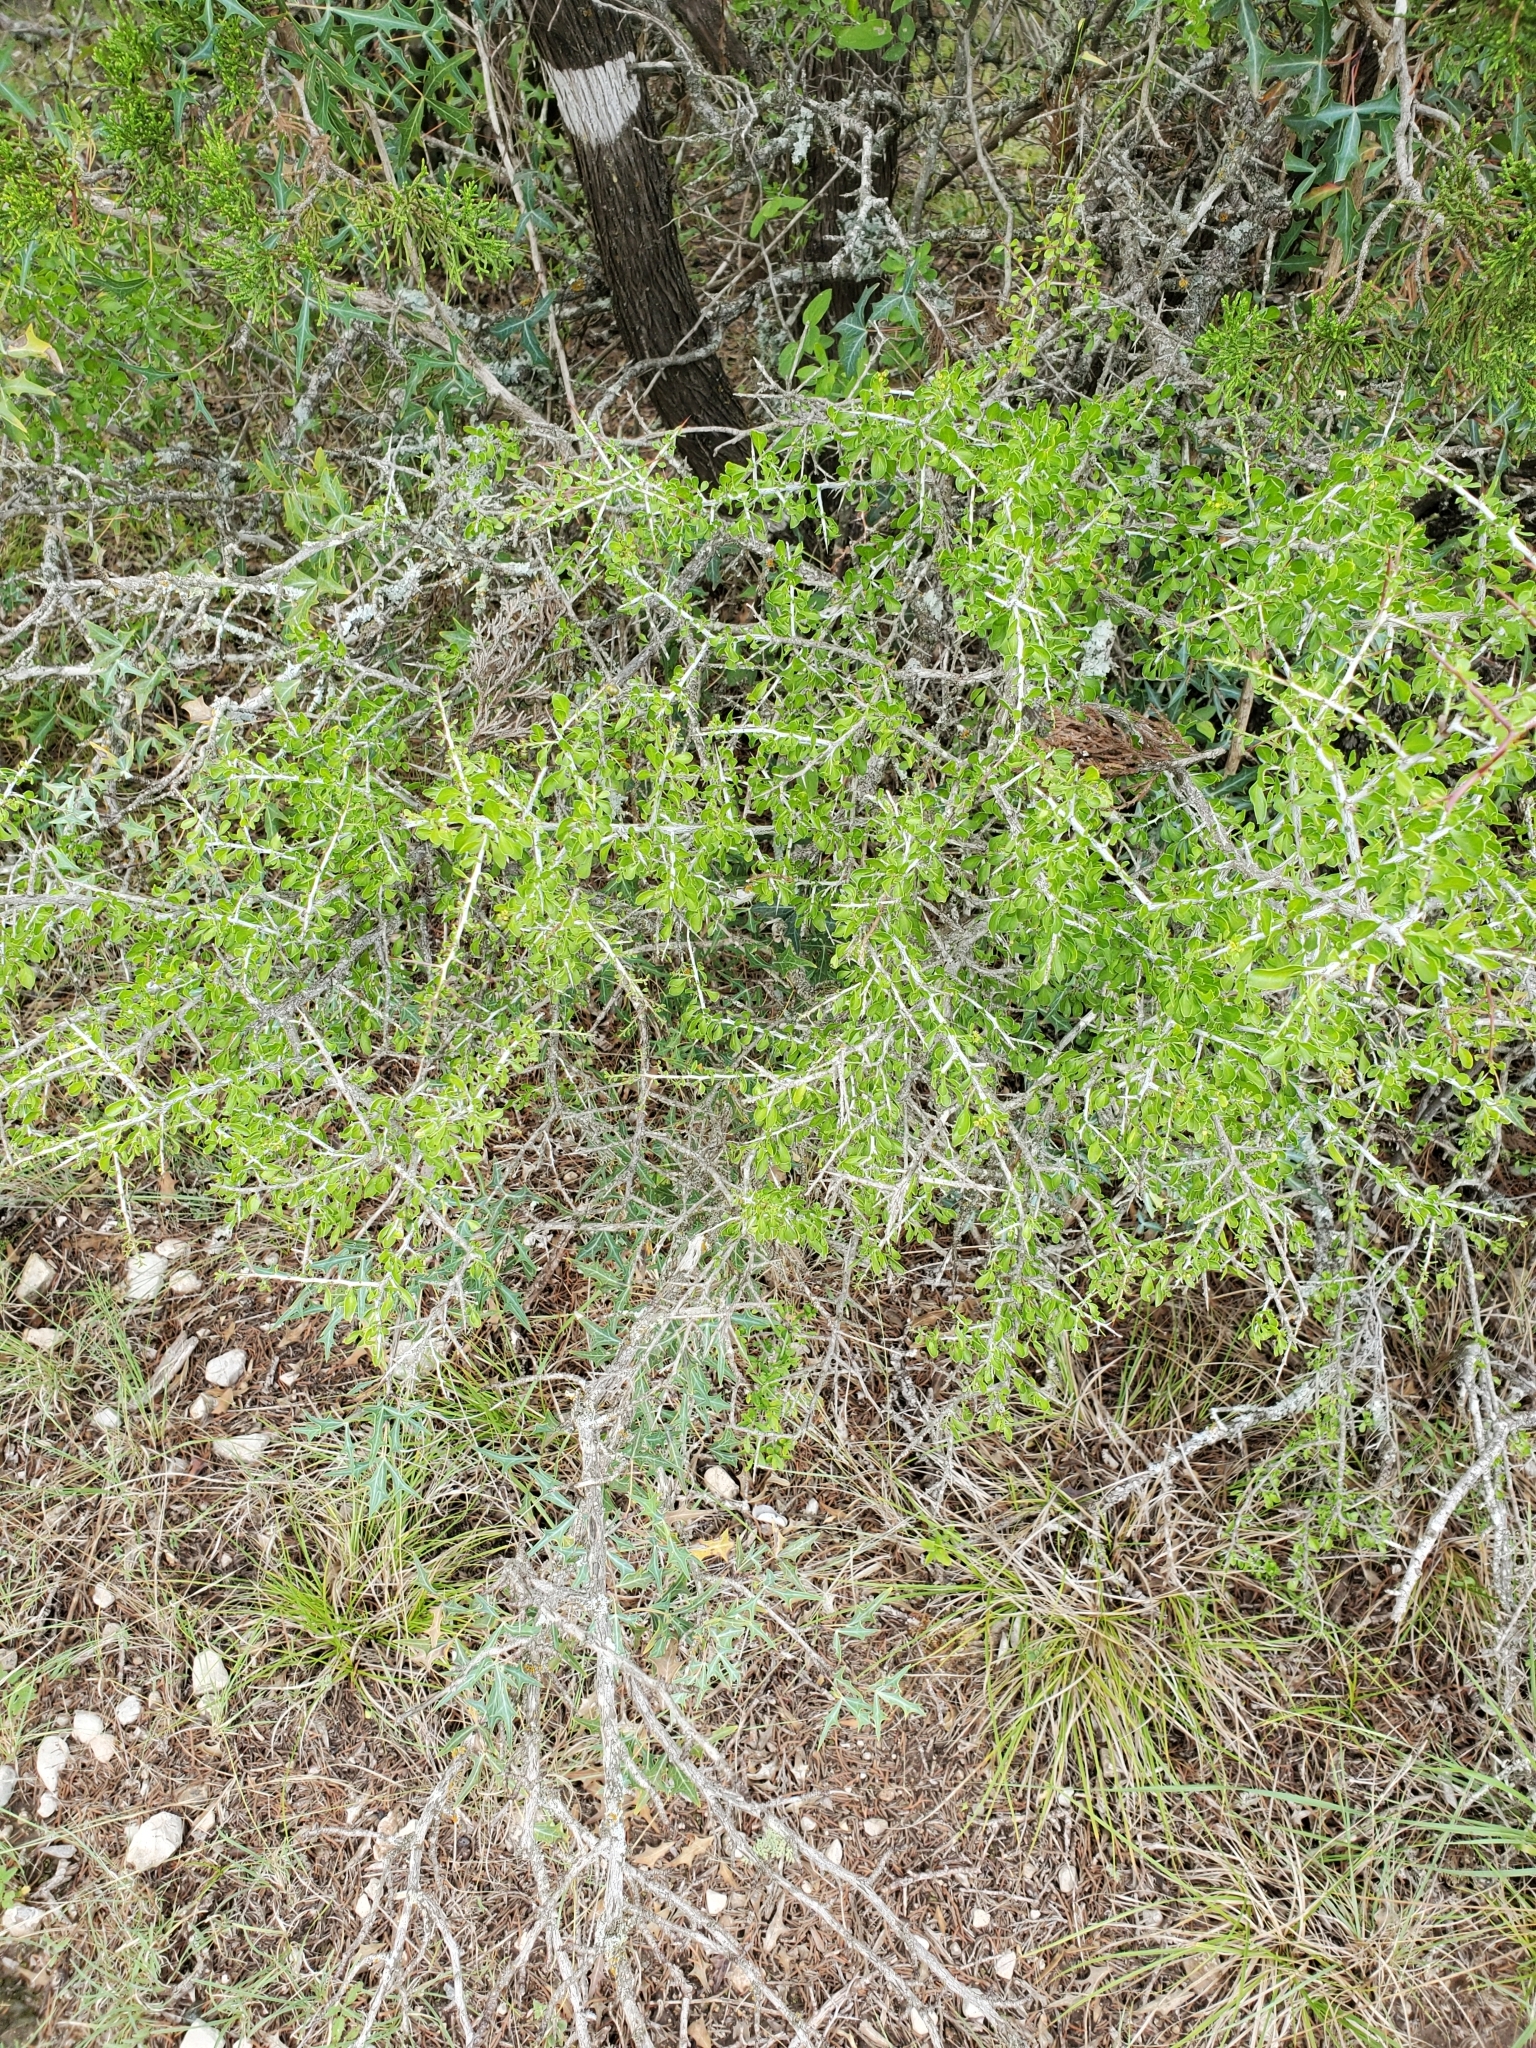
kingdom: Plantae
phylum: Tracheophyta
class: Magnoliopsida
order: Rosales
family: Rhamnaceae
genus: Condalia
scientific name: Condalia viridis
